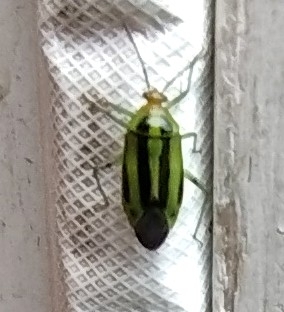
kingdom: Animalia
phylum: Arthropoda
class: Insecta
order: Hemiptera
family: Miridae
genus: Poecilocapsus
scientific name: Poecilocapsus lineatus
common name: Four-lined plant bug
